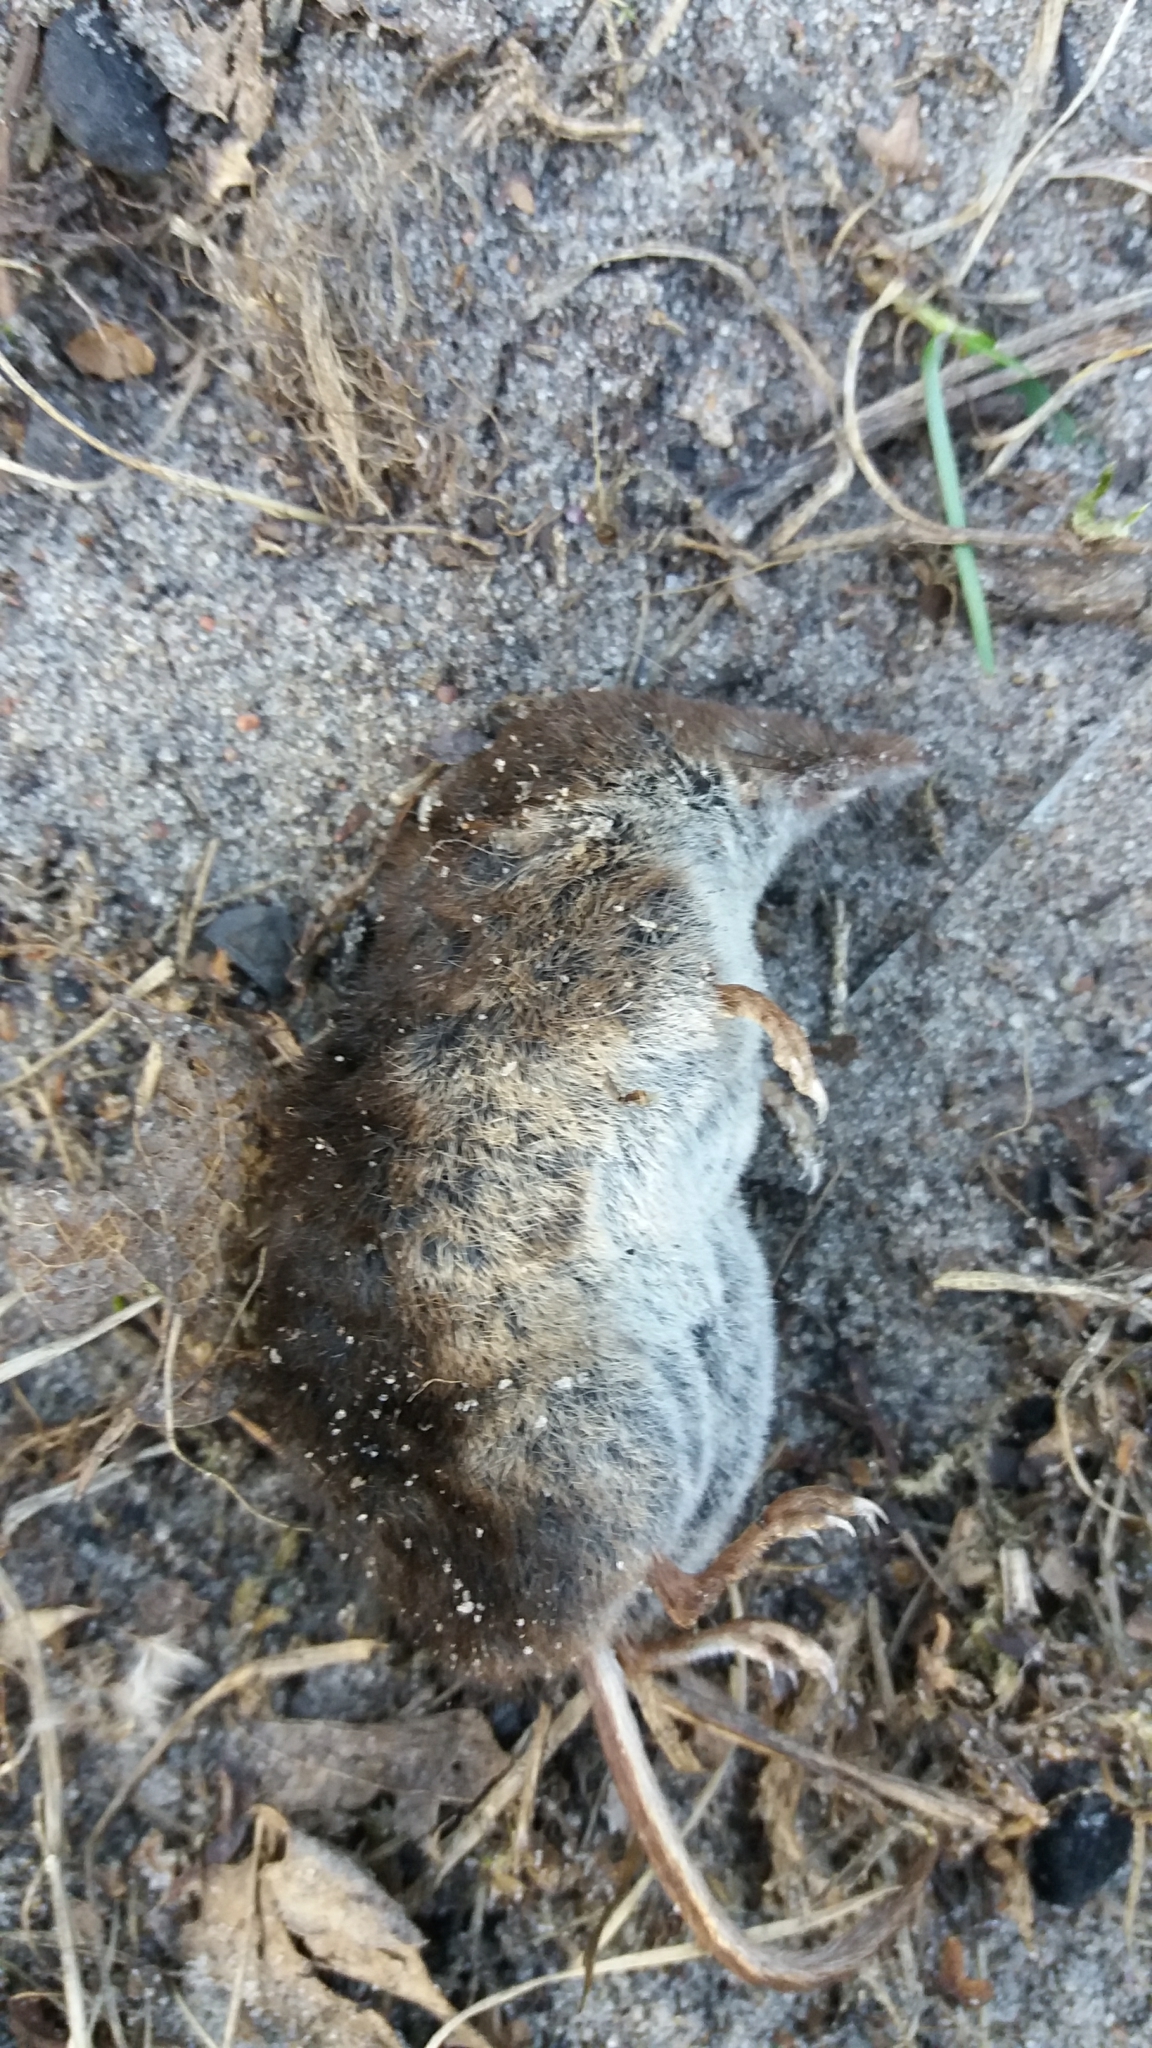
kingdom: Animalia
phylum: Chordata
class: Mammalia
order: Soricomorpha
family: Soricidae
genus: Sorex
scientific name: Sorex araneus
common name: Common shrew
